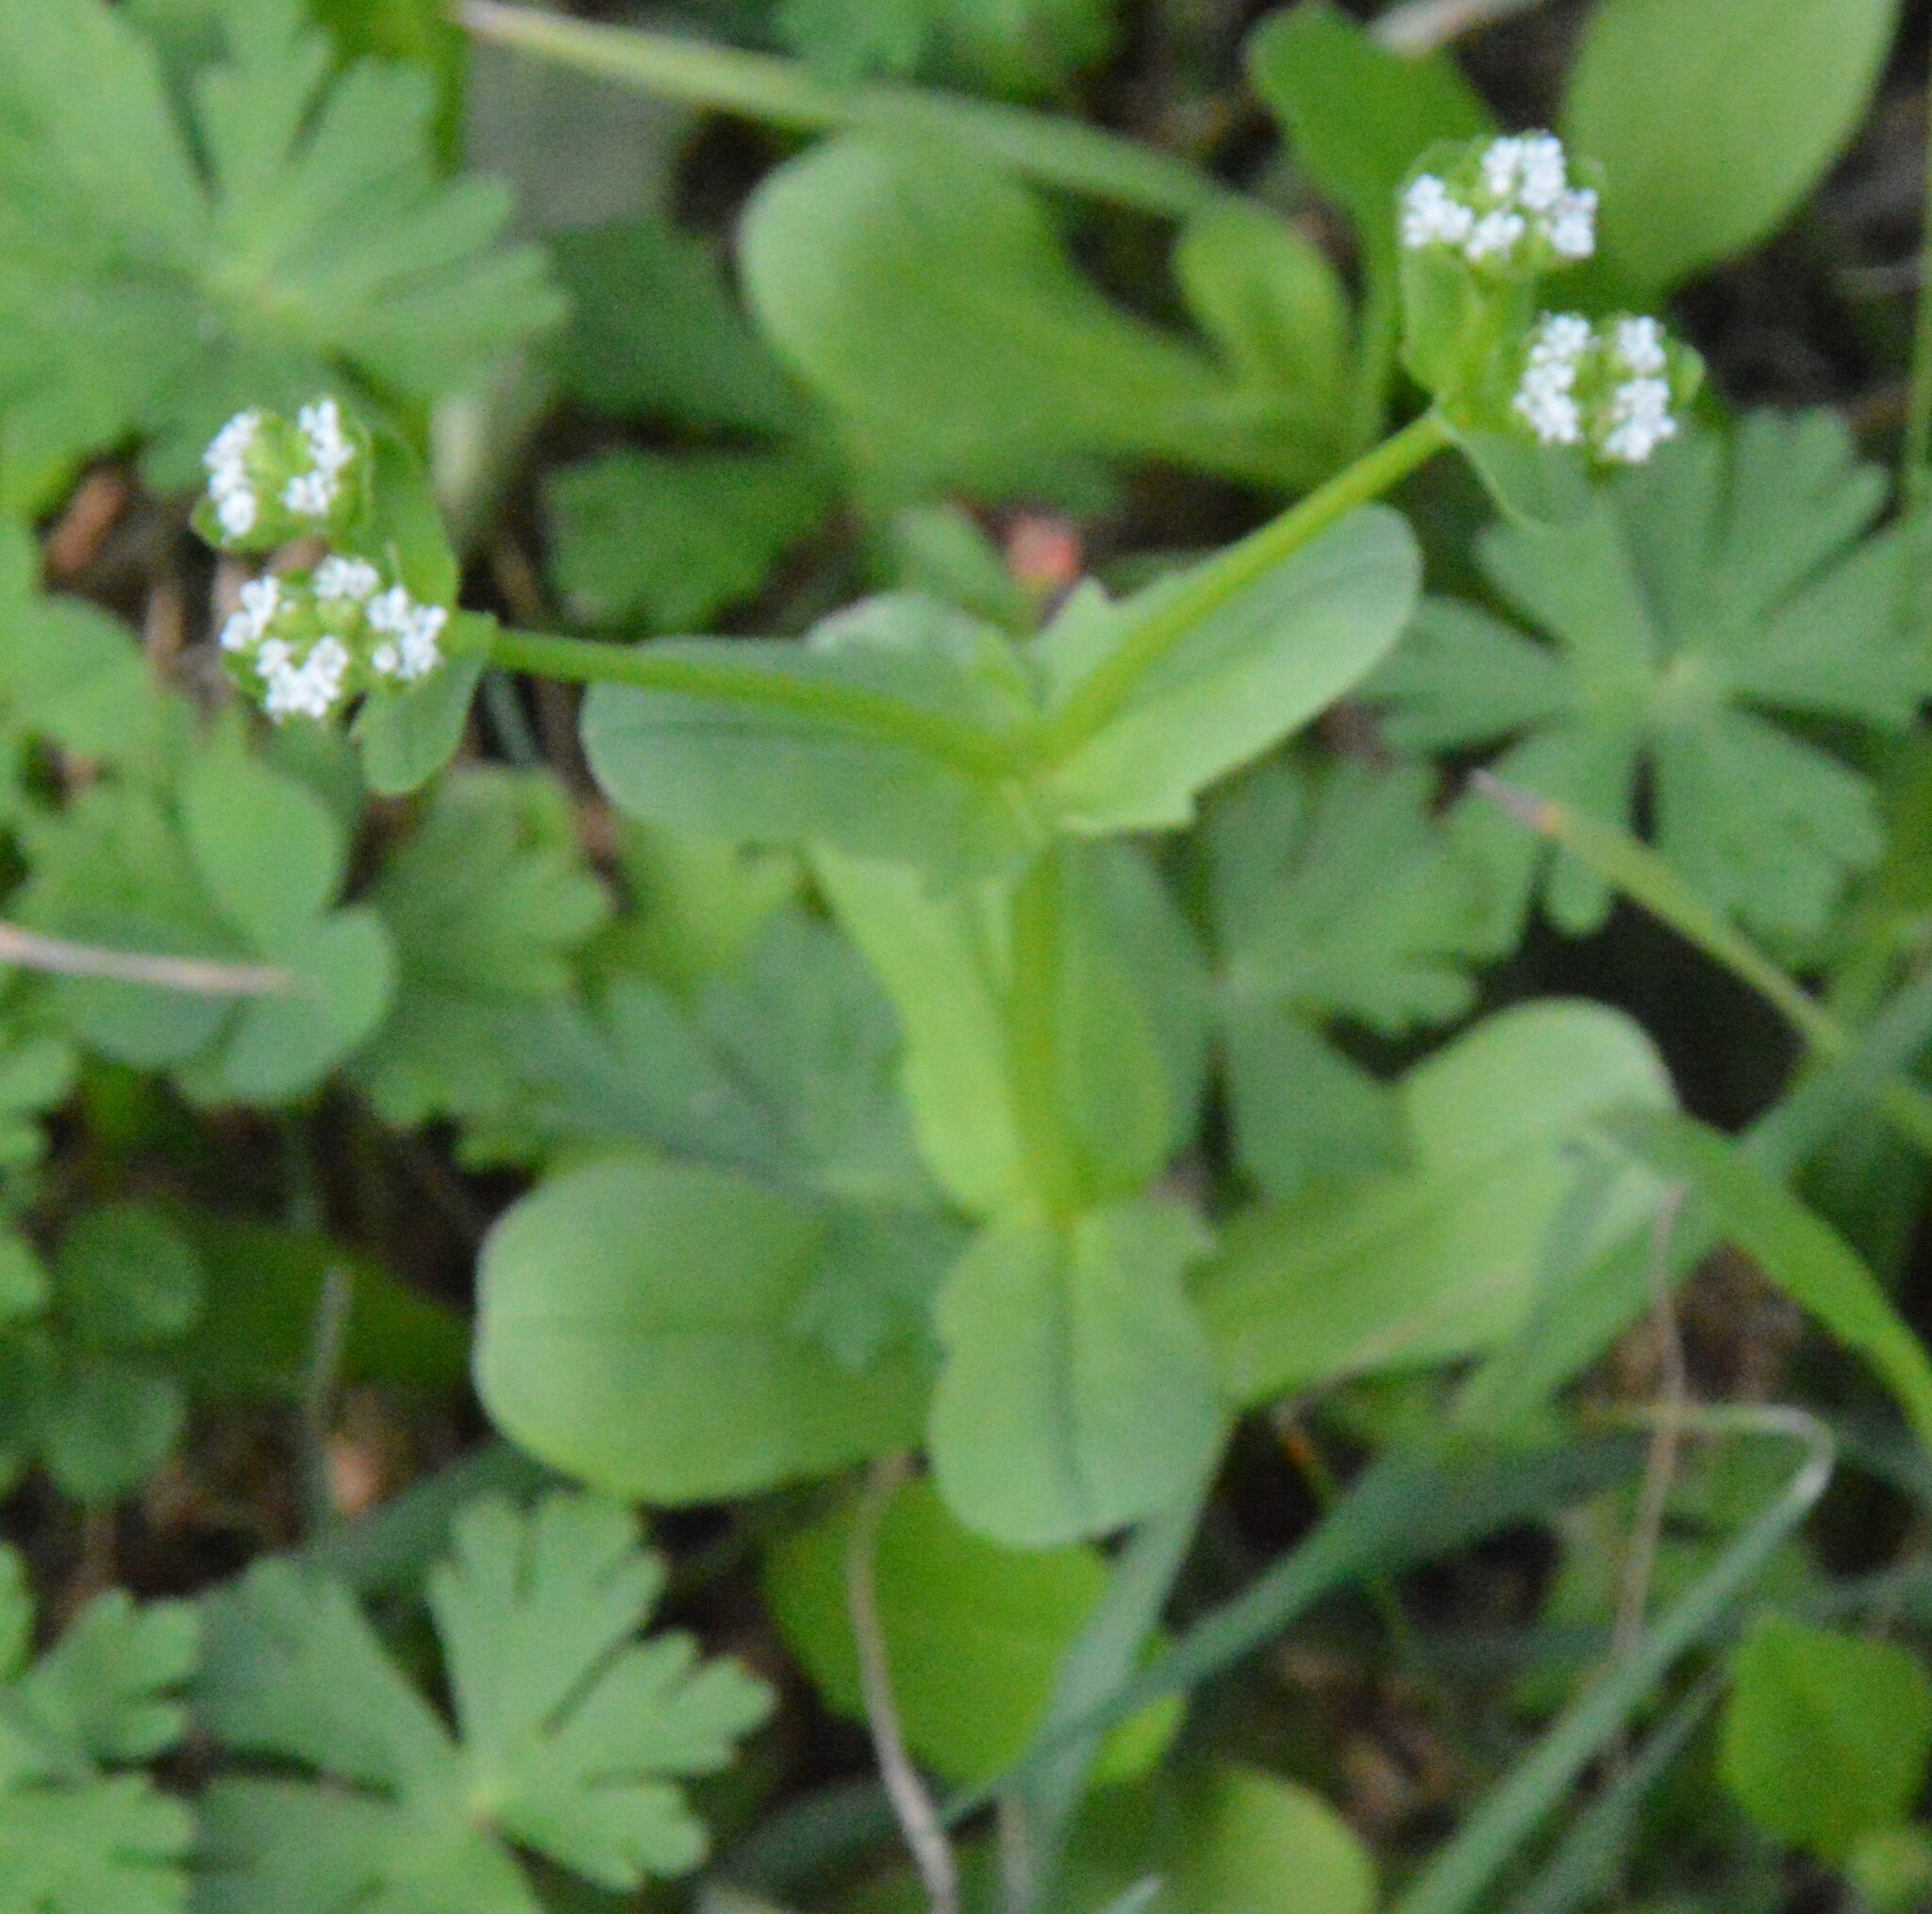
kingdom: Plantae
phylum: Tracheophyta
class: Magnoliopsida
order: Dipsacales
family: Caprifoliaceae
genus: Valerianella
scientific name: Valerianella radiata
